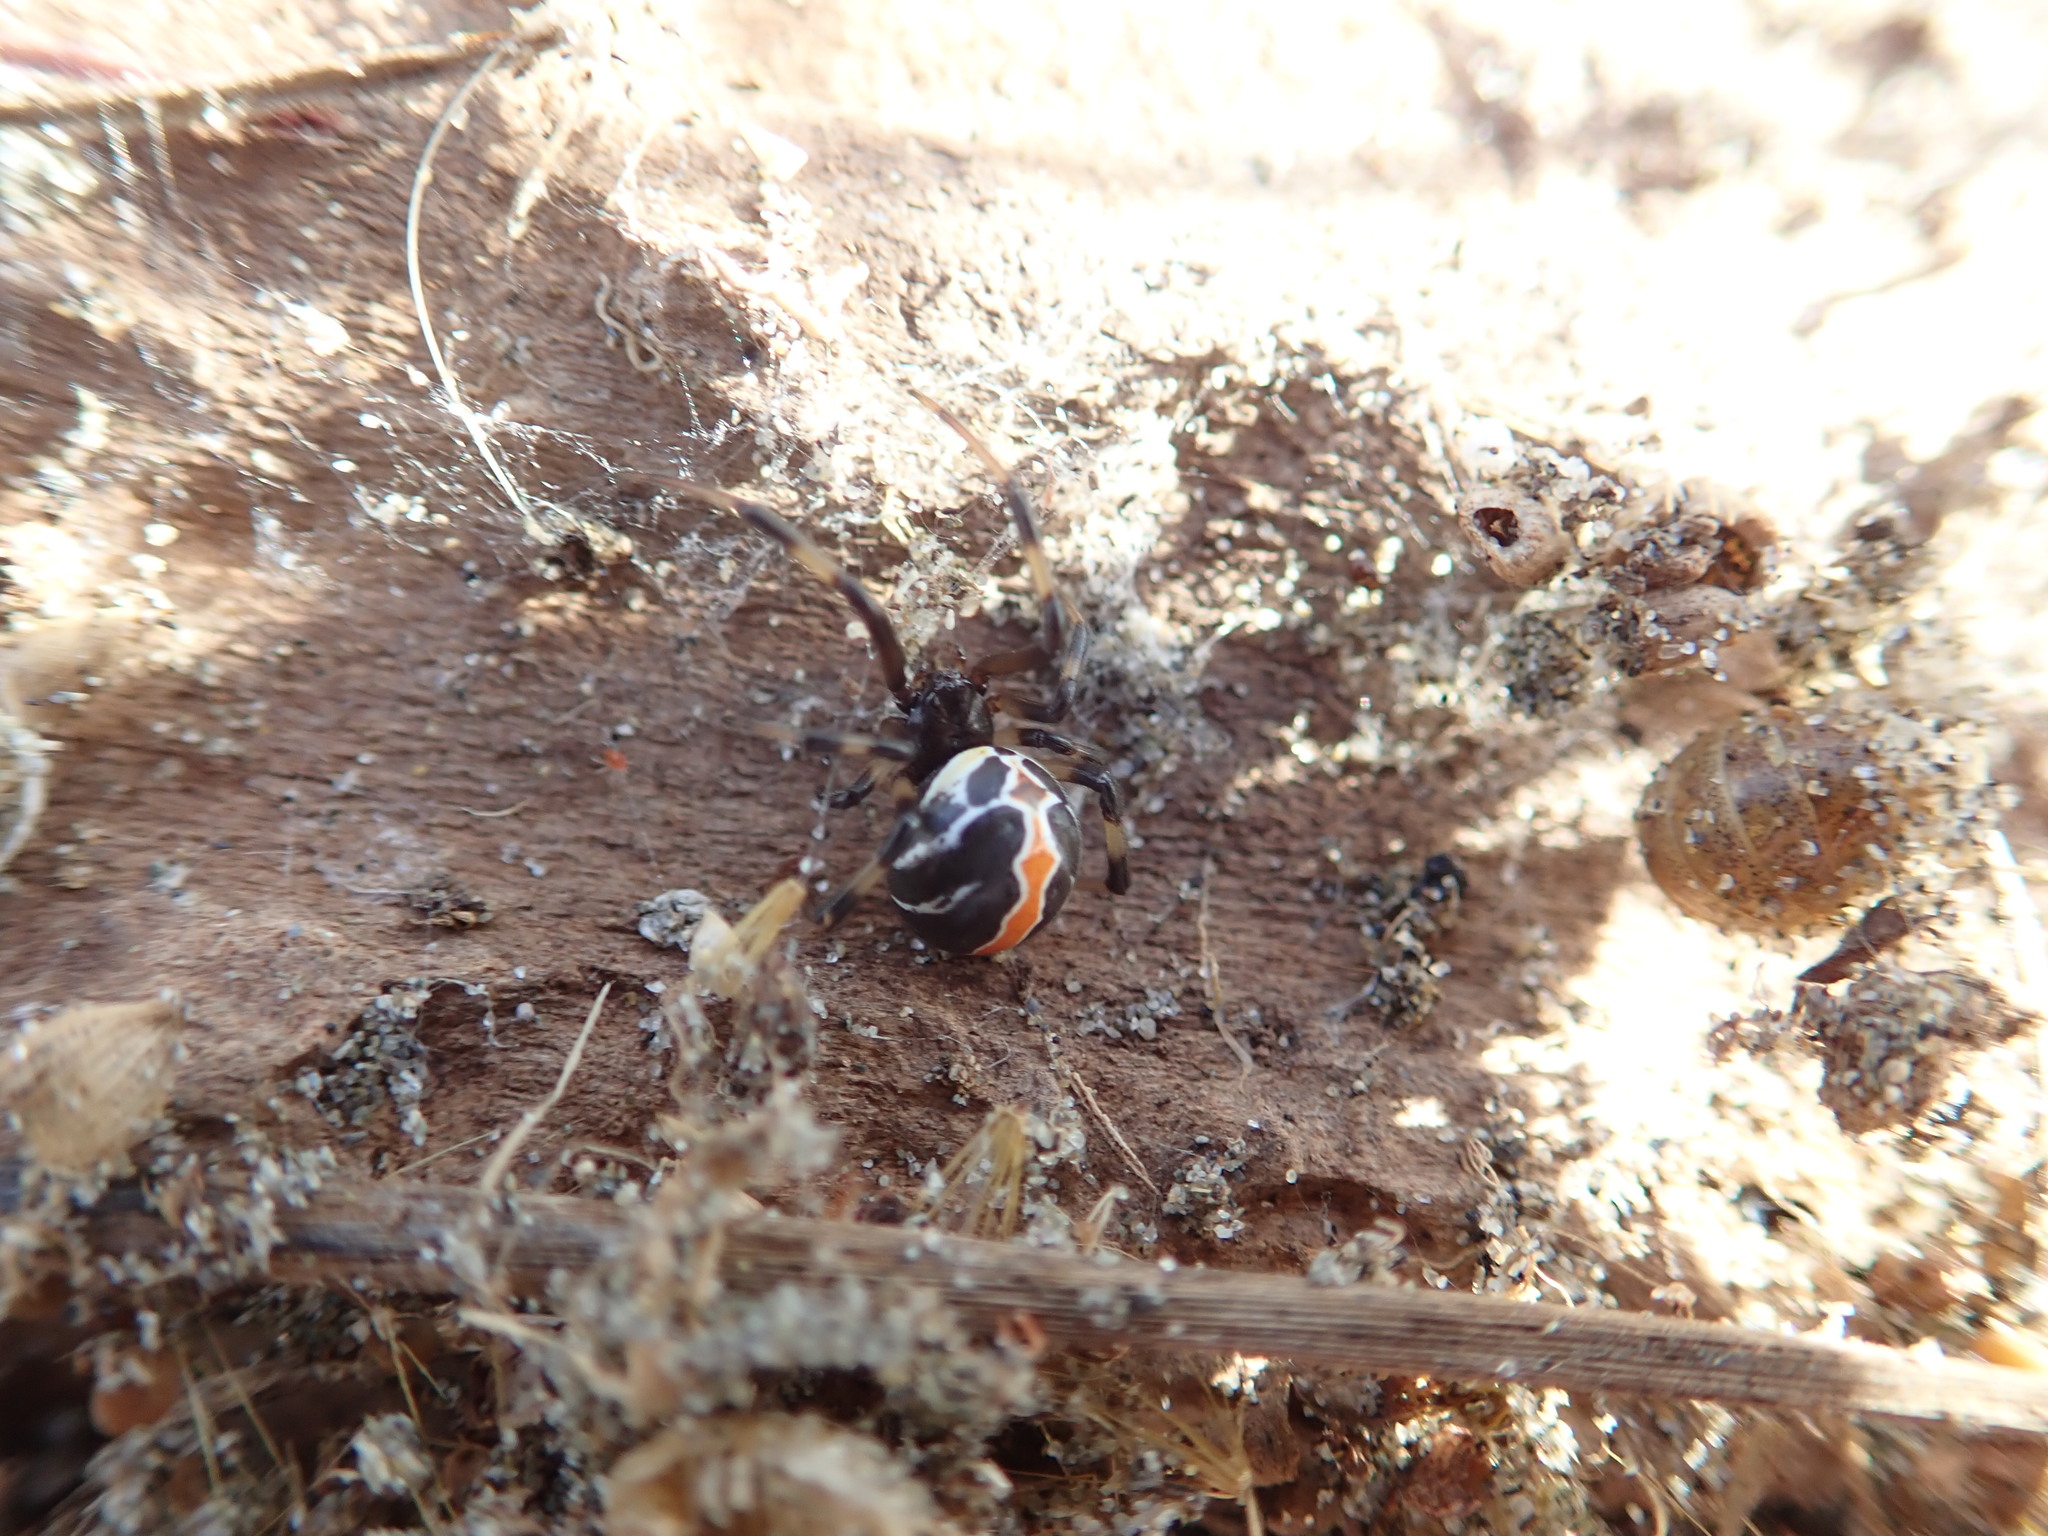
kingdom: Animalia
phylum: Arthropoda
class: Arachnida
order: Araneae
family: Theridiidae
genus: Latrodectus
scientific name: Latrodectus katipo
